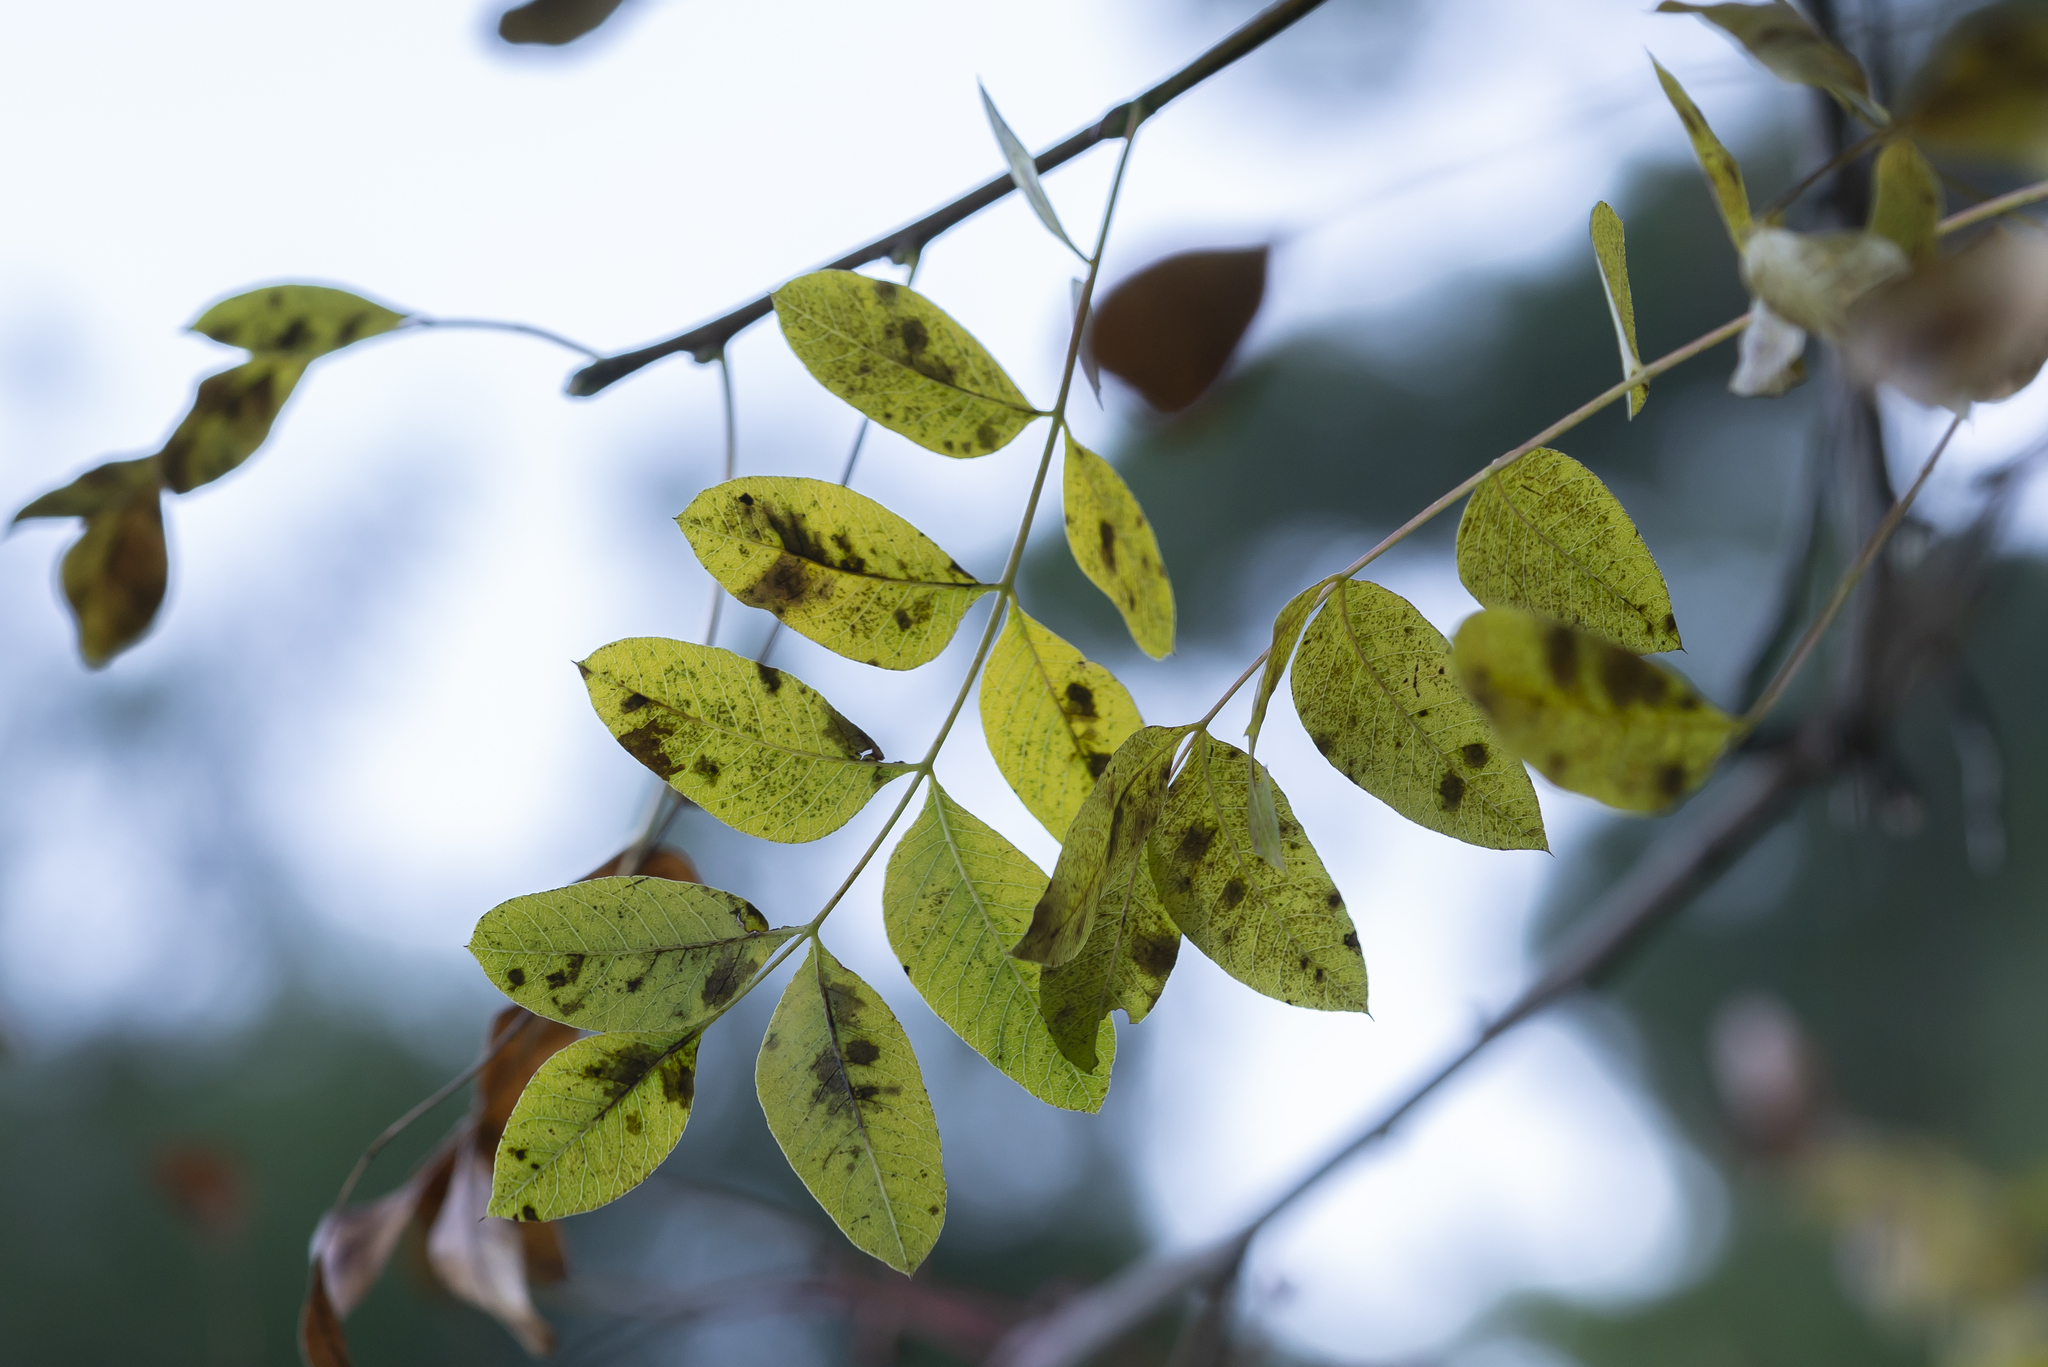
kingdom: Plantae
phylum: Tracheophyta
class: Magnoliopsida
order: Sapindales
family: Anacardiaceae
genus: Pistacia
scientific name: Pistacia terebinthus
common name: Terebinth
